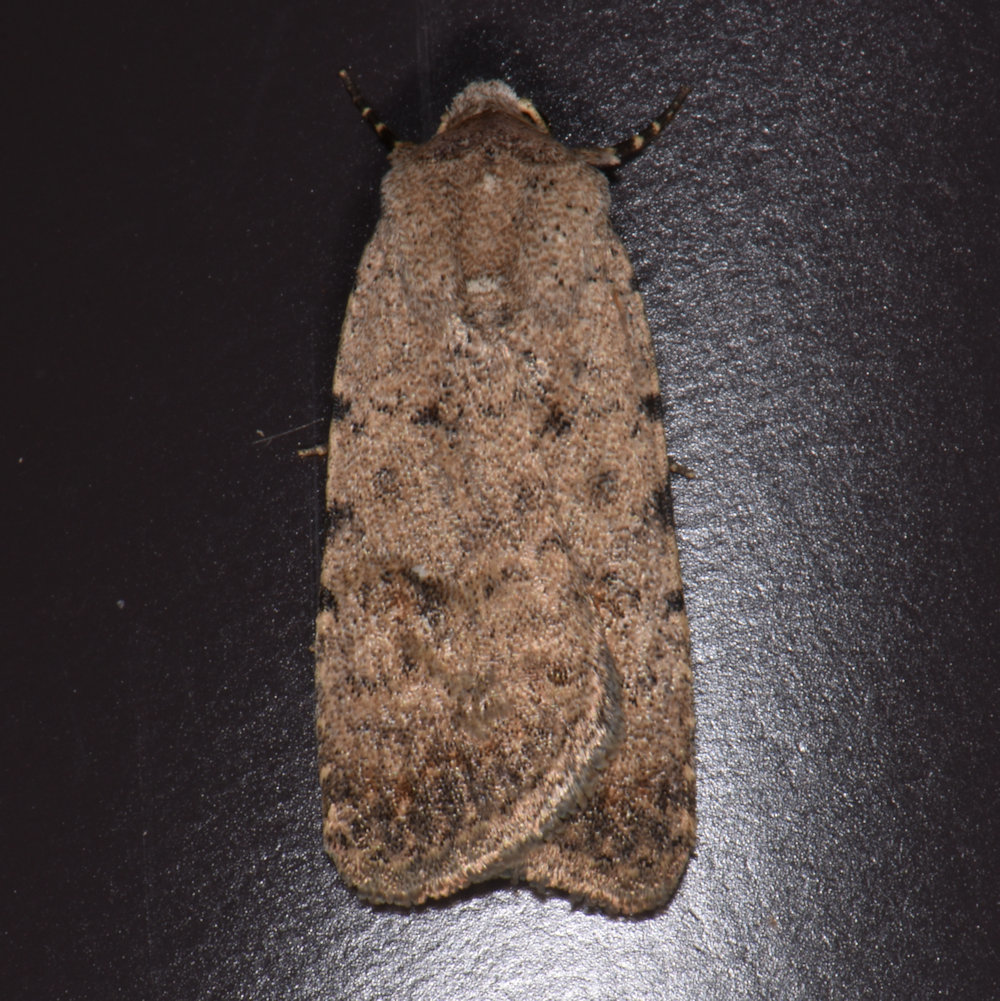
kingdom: Animalia
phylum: Arthropoda
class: Insecta
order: Lepidoptera
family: Noctuidae
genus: Caradrina
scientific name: Caradrina clavipalpis
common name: Pale mottled willow
